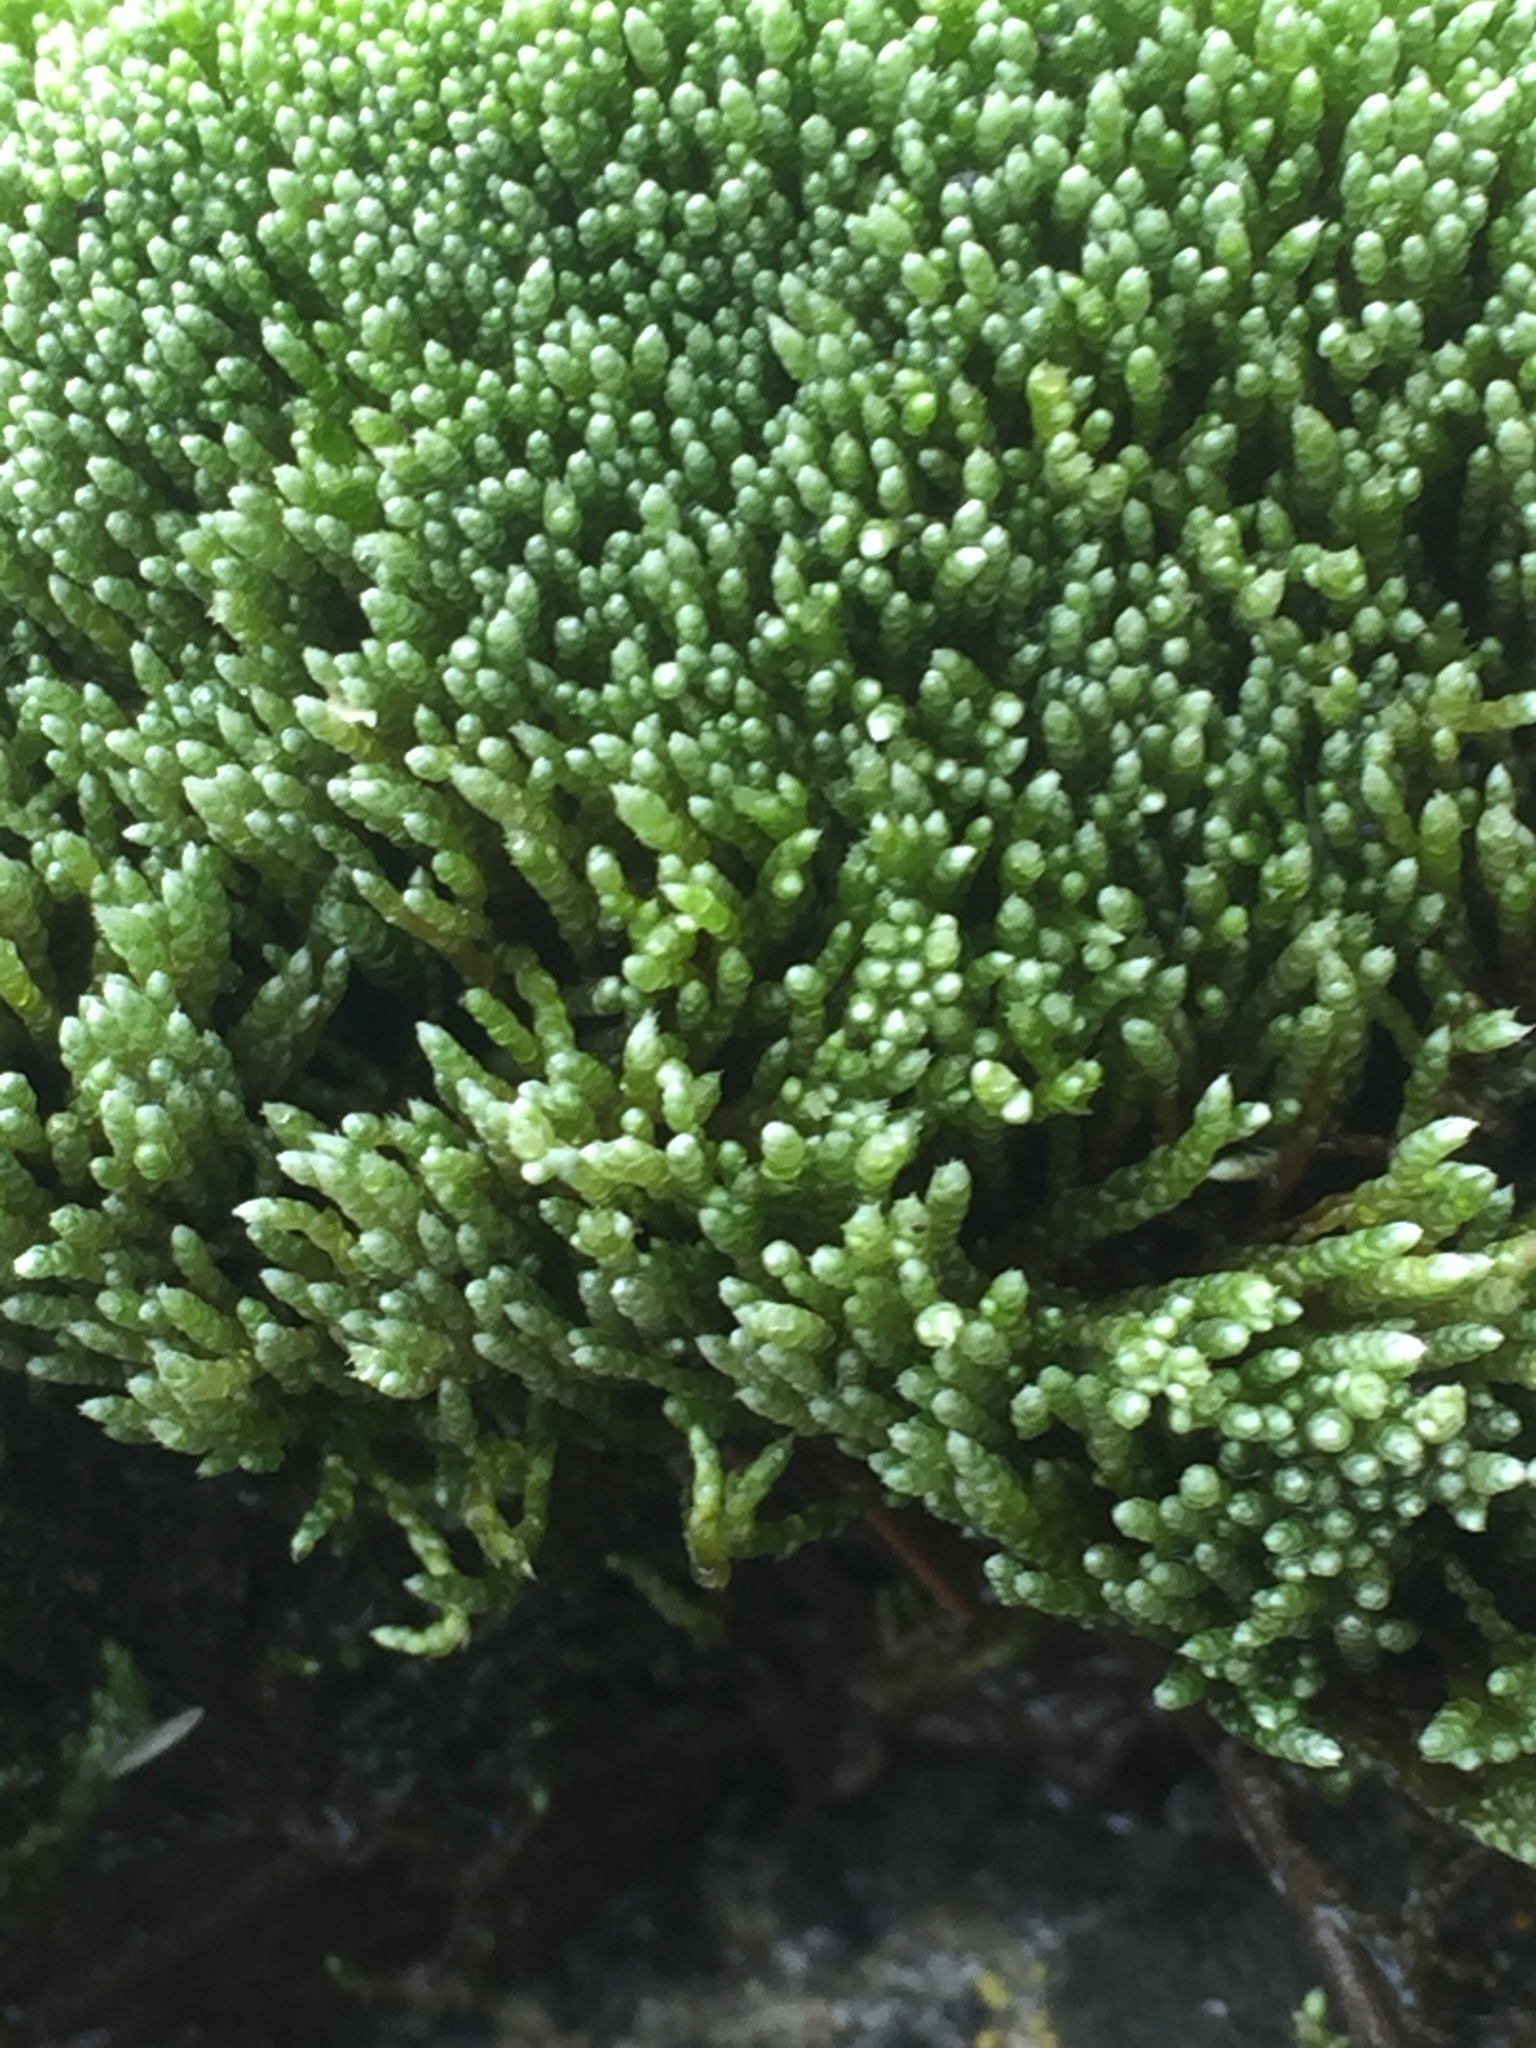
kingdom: Plantae
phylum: Bryophyta
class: Bryopsida
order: Bryales
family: Bryaceae
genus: Bryum
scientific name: Bryum argenteum
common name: Silver-moss
